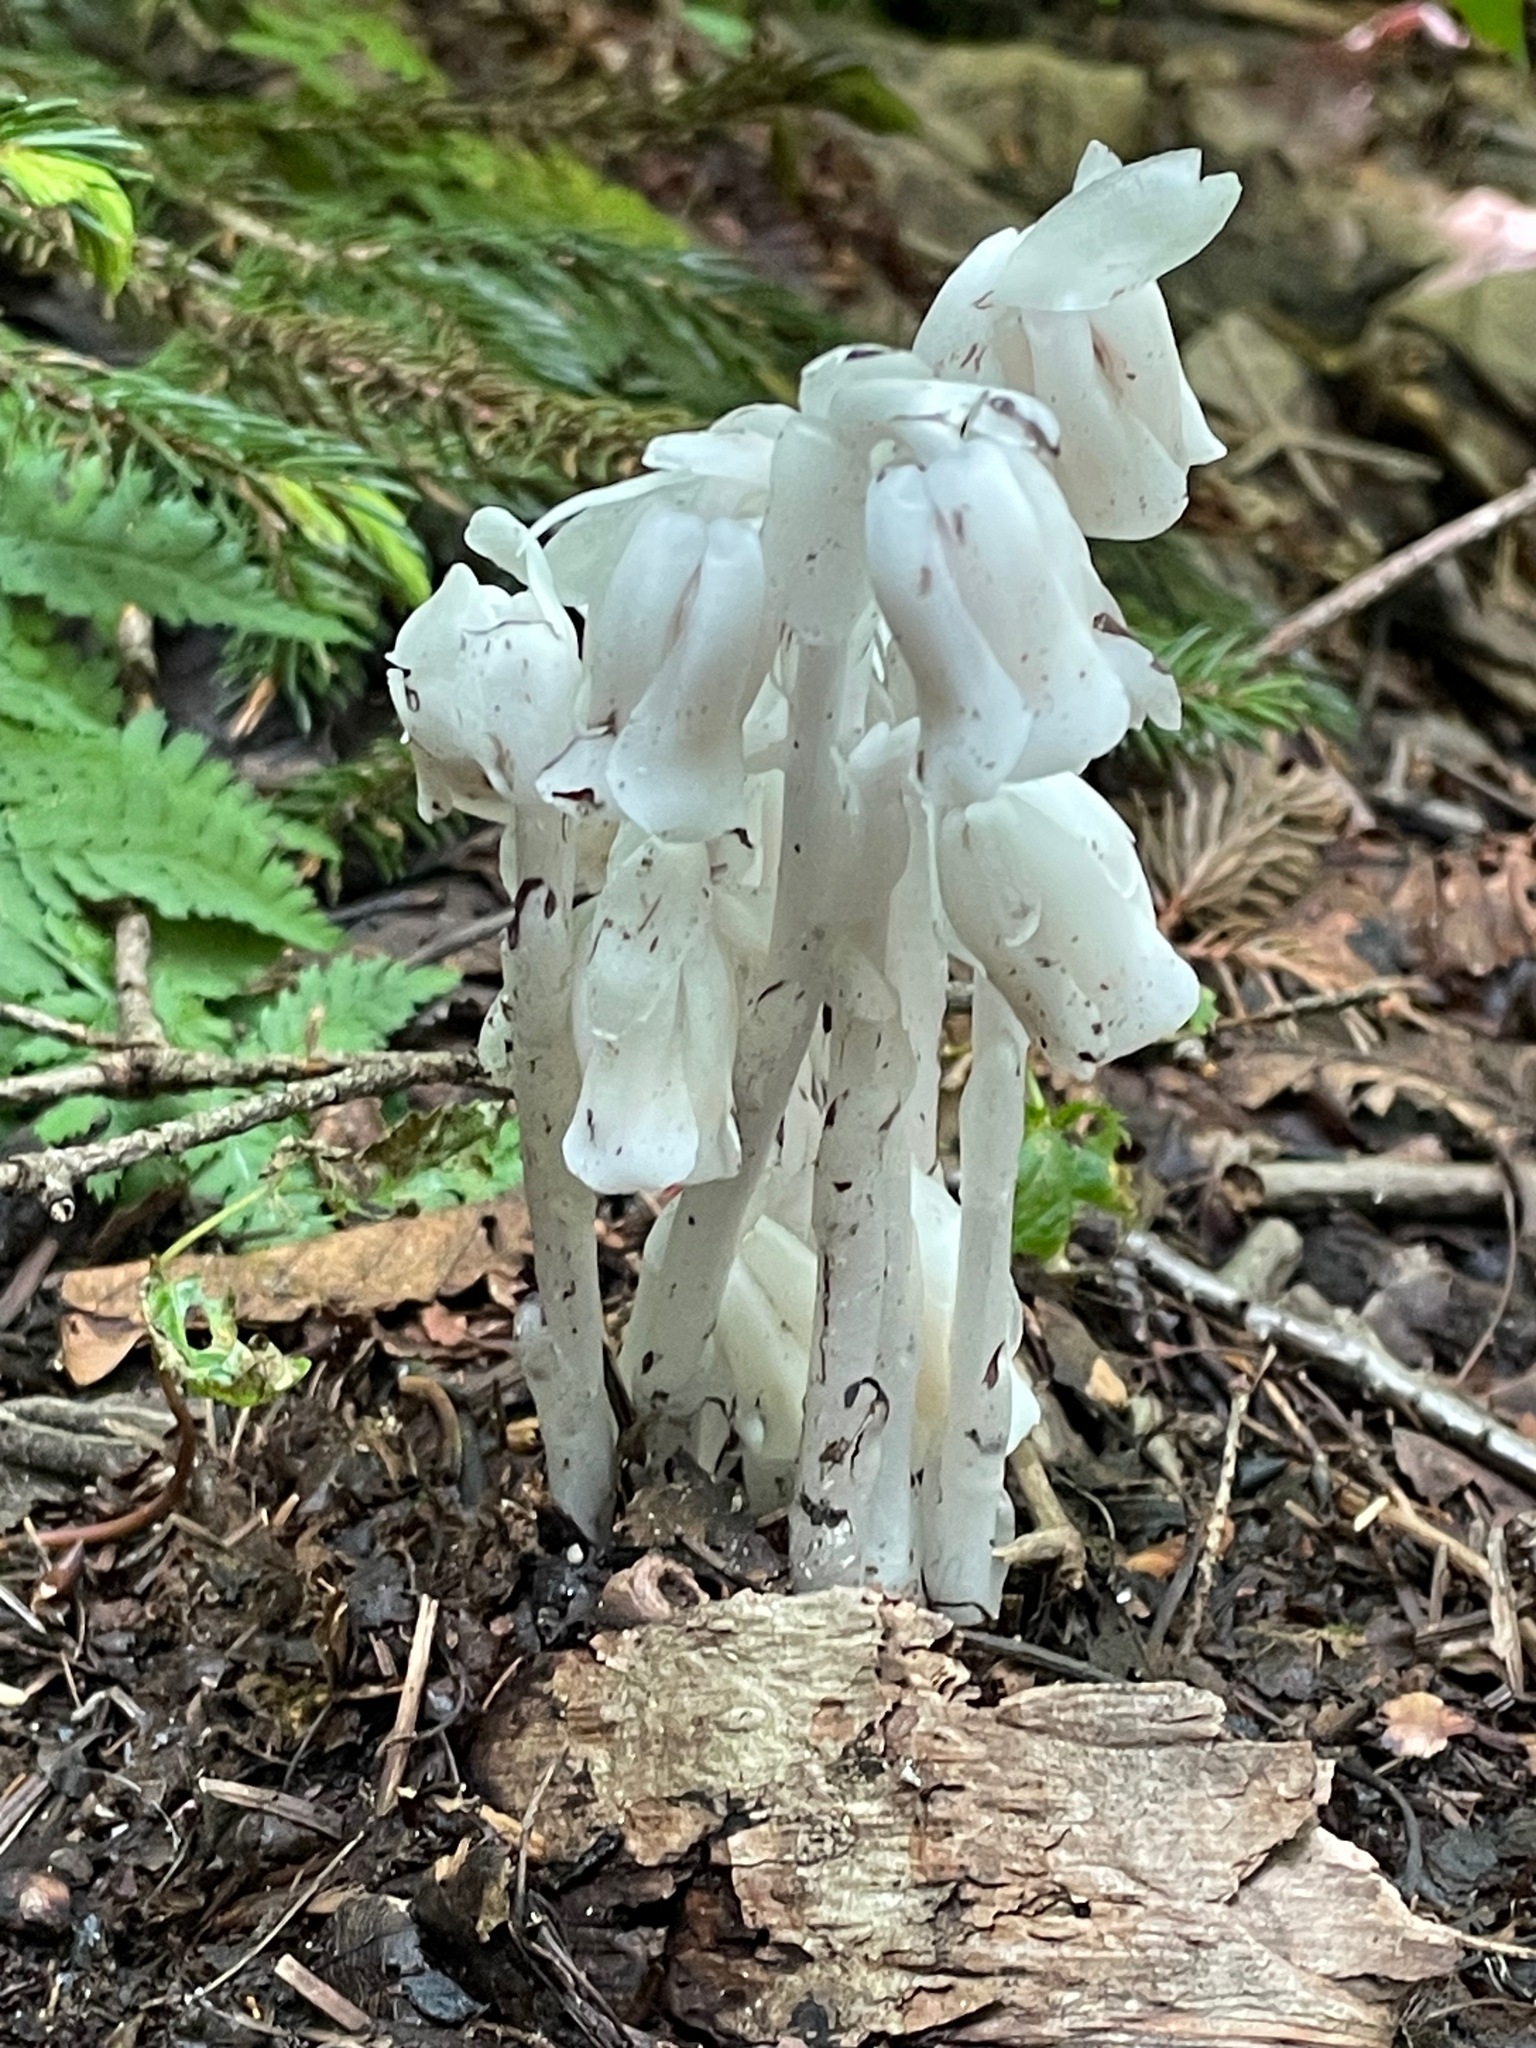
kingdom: Plantae
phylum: Tracheophyta
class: Magnoliopsida
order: Ericales
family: Ericaceae
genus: Monotropa
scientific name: Monotropa uniflora
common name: Convulsion root
